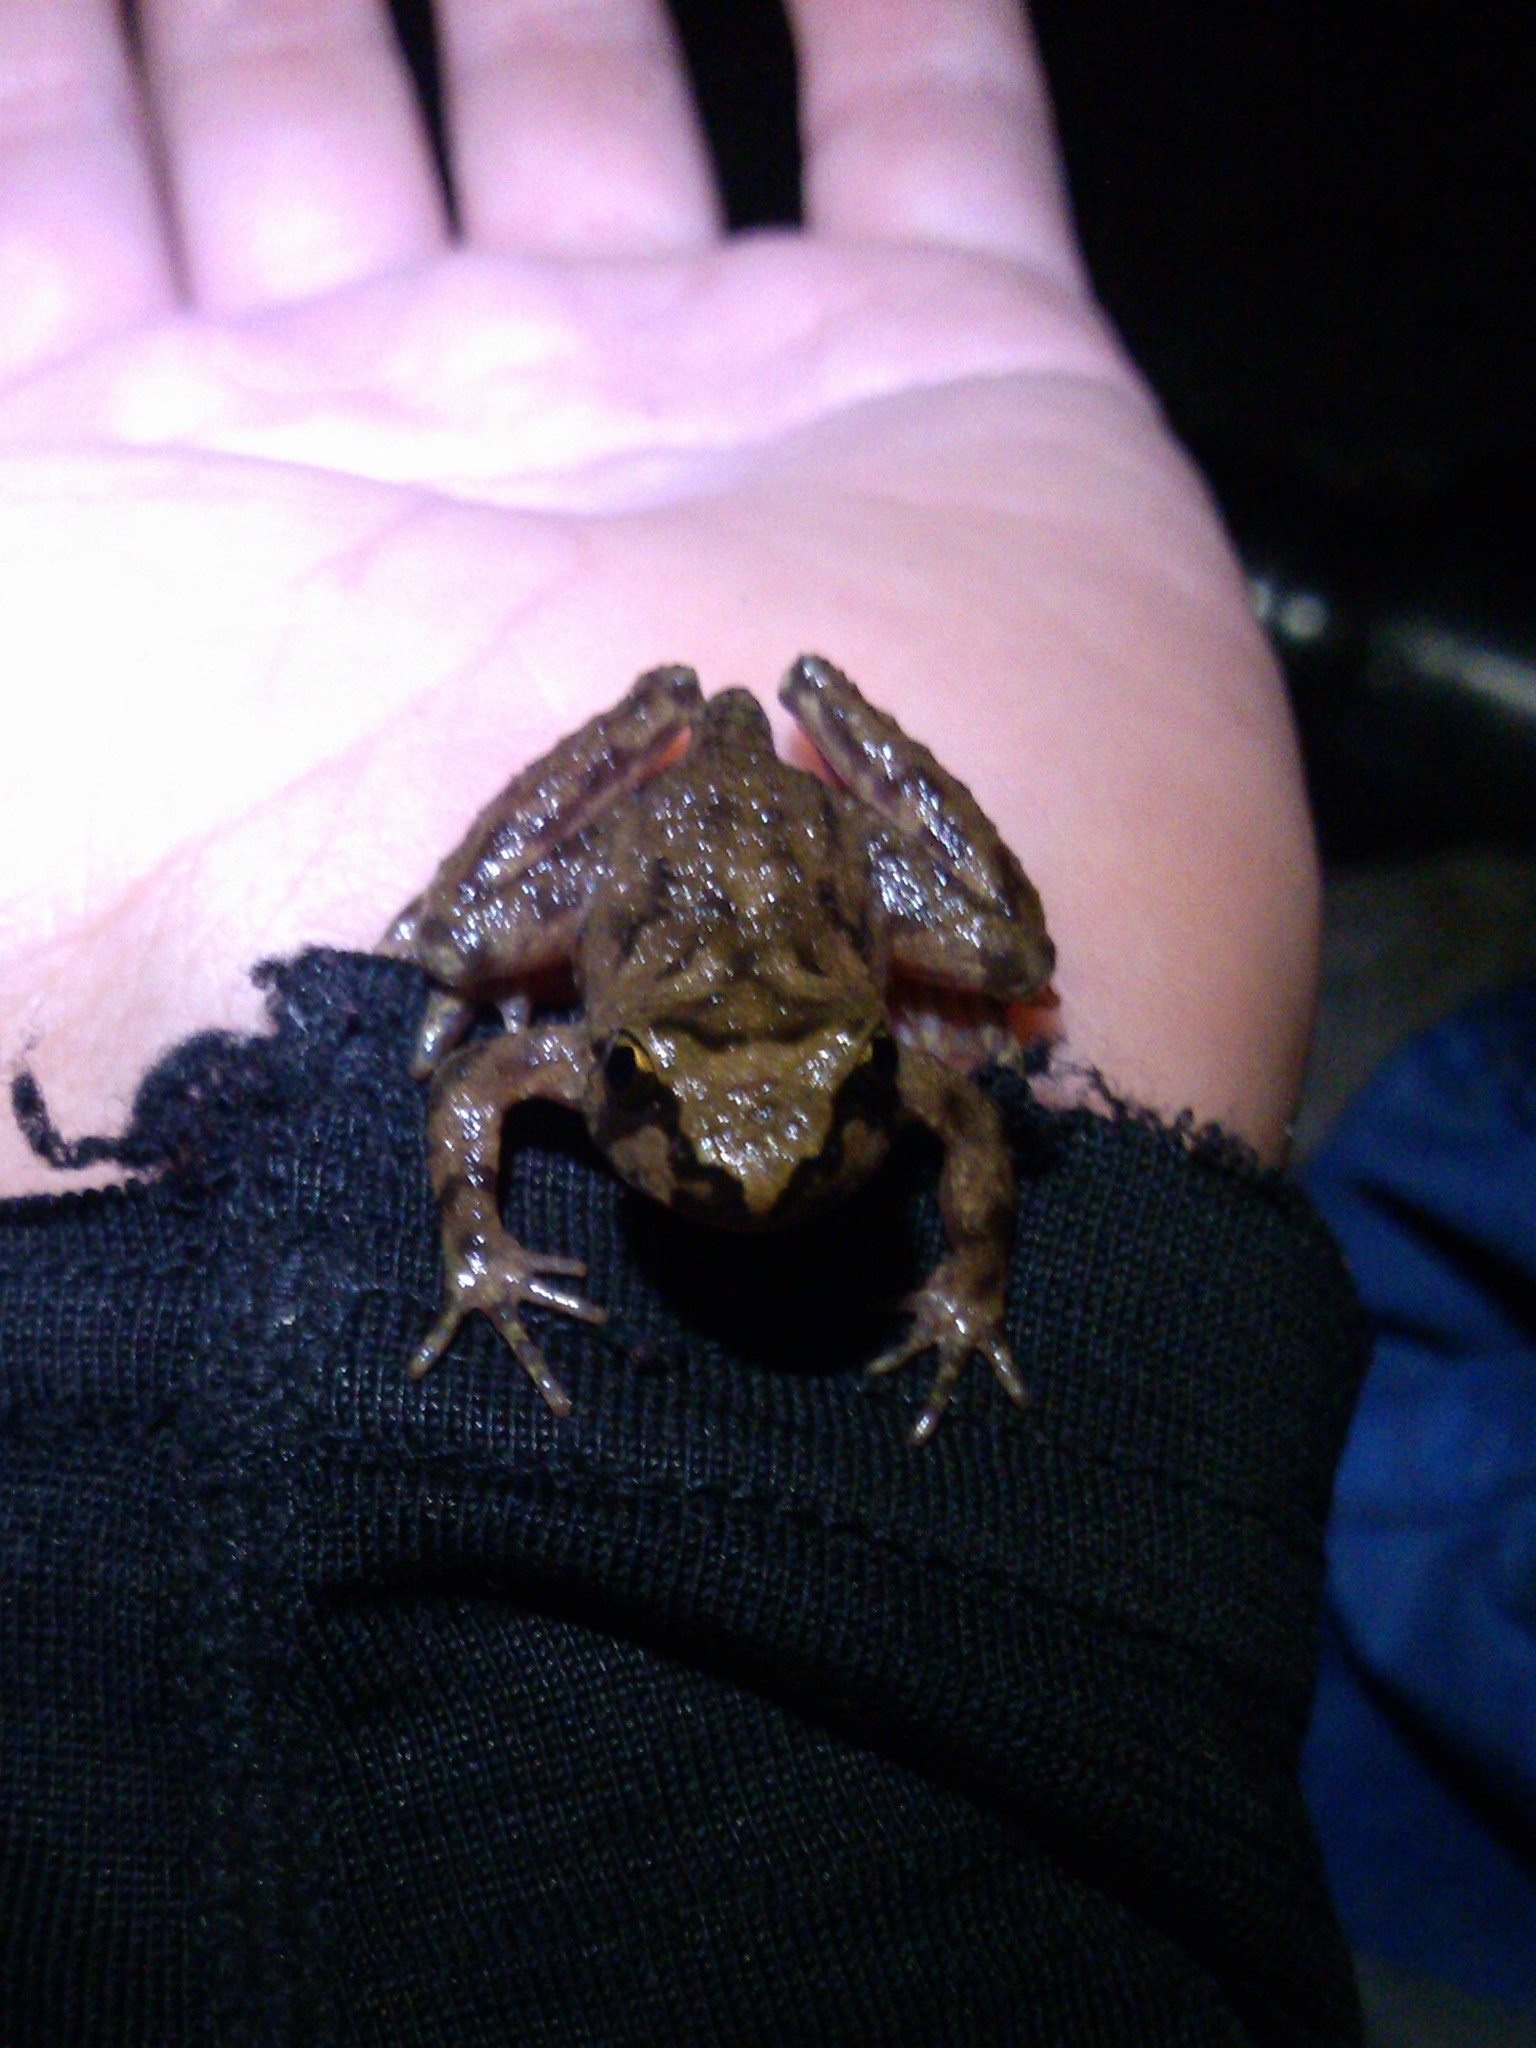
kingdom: Animalia
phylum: Chordata
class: Amphibia
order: Anura
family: Ascaphidae
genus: Ascaphus
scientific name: Ascaphus truei
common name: Tailed frog
